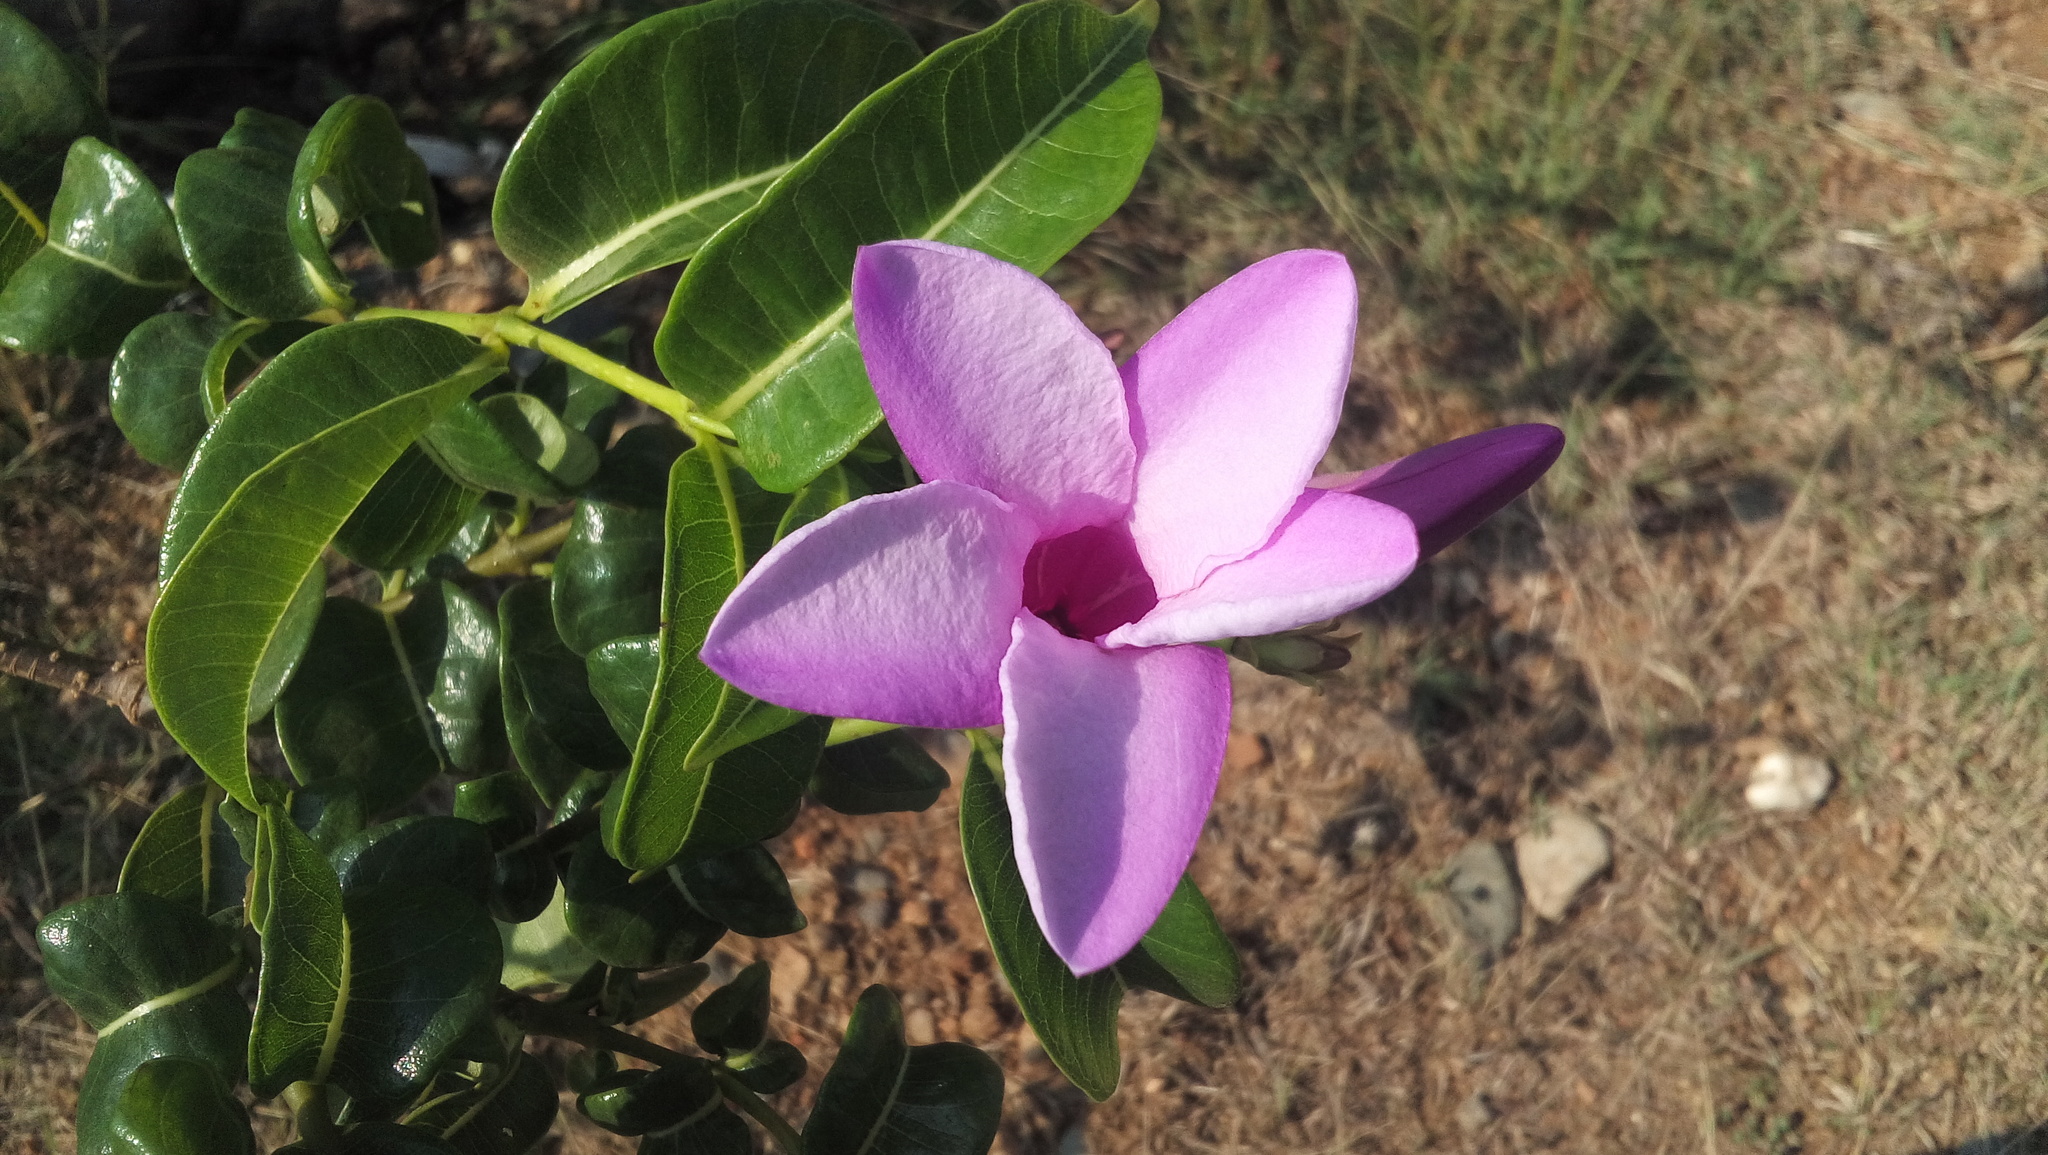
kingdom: Plantae
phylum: Tracheophyta
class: Magnoliopsida
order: Gentianales
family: Apocynaceae
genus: Cryptostegia
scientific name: Cryptostegia grandiflora
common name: Palay rubbervine
